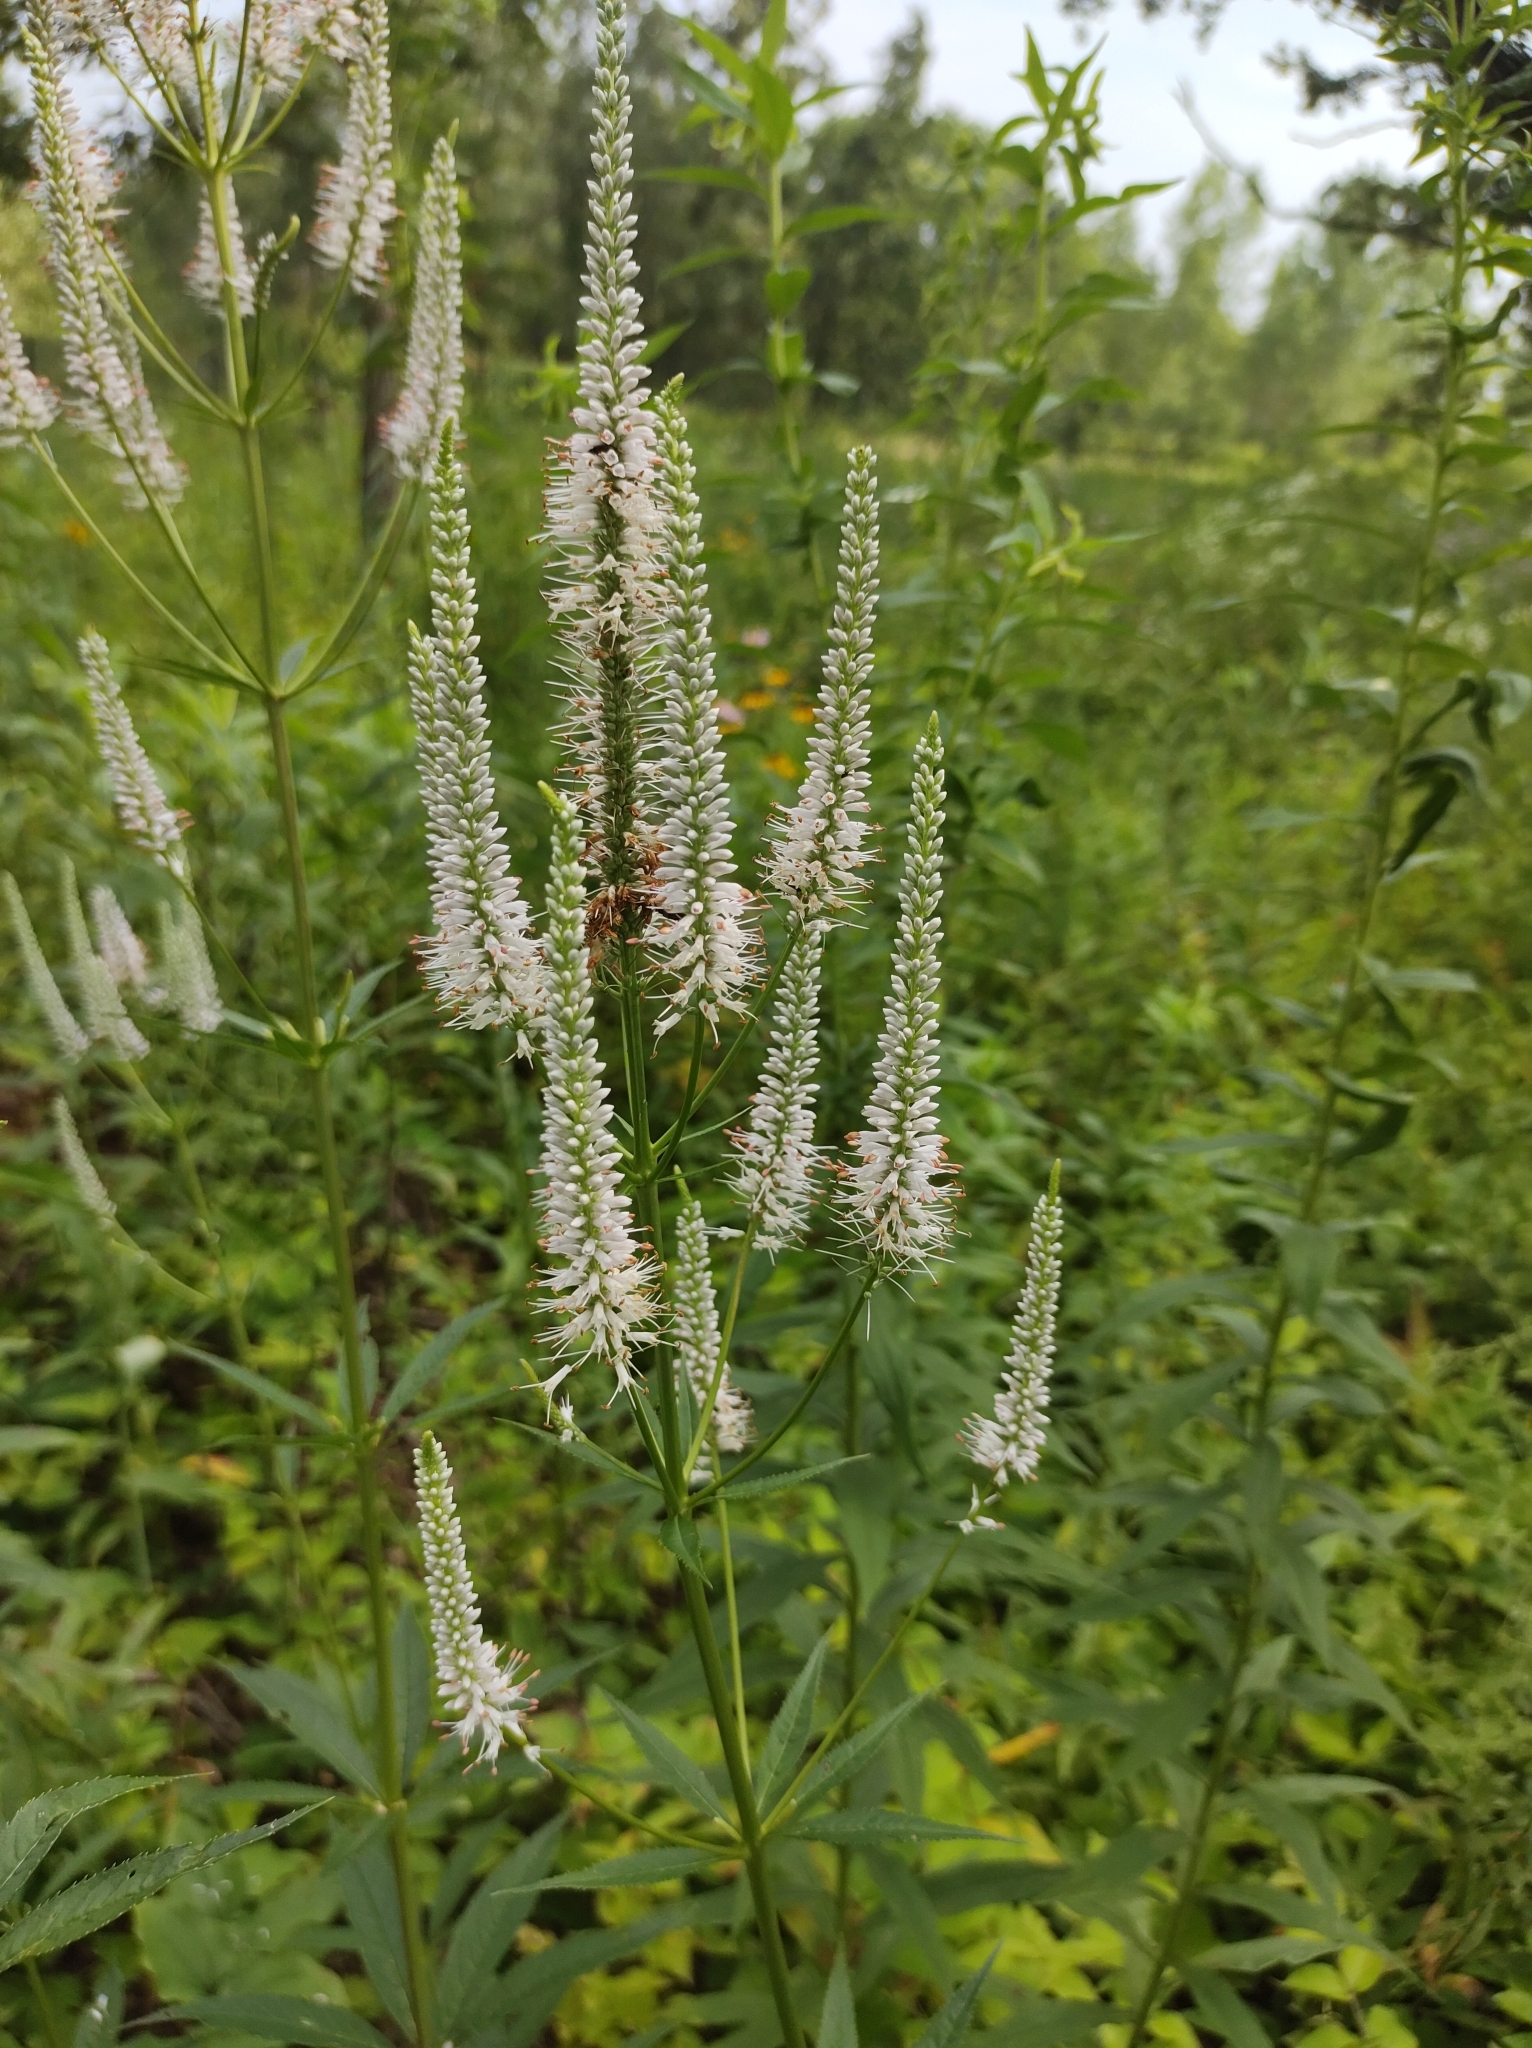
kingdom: Plantae
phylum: Tracheophyta
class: Magnoliopsida
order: Lamiales
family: Plantaginaceae
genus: Veronicastrum
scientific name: Veronicastrum virginicum
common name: Blackroot
